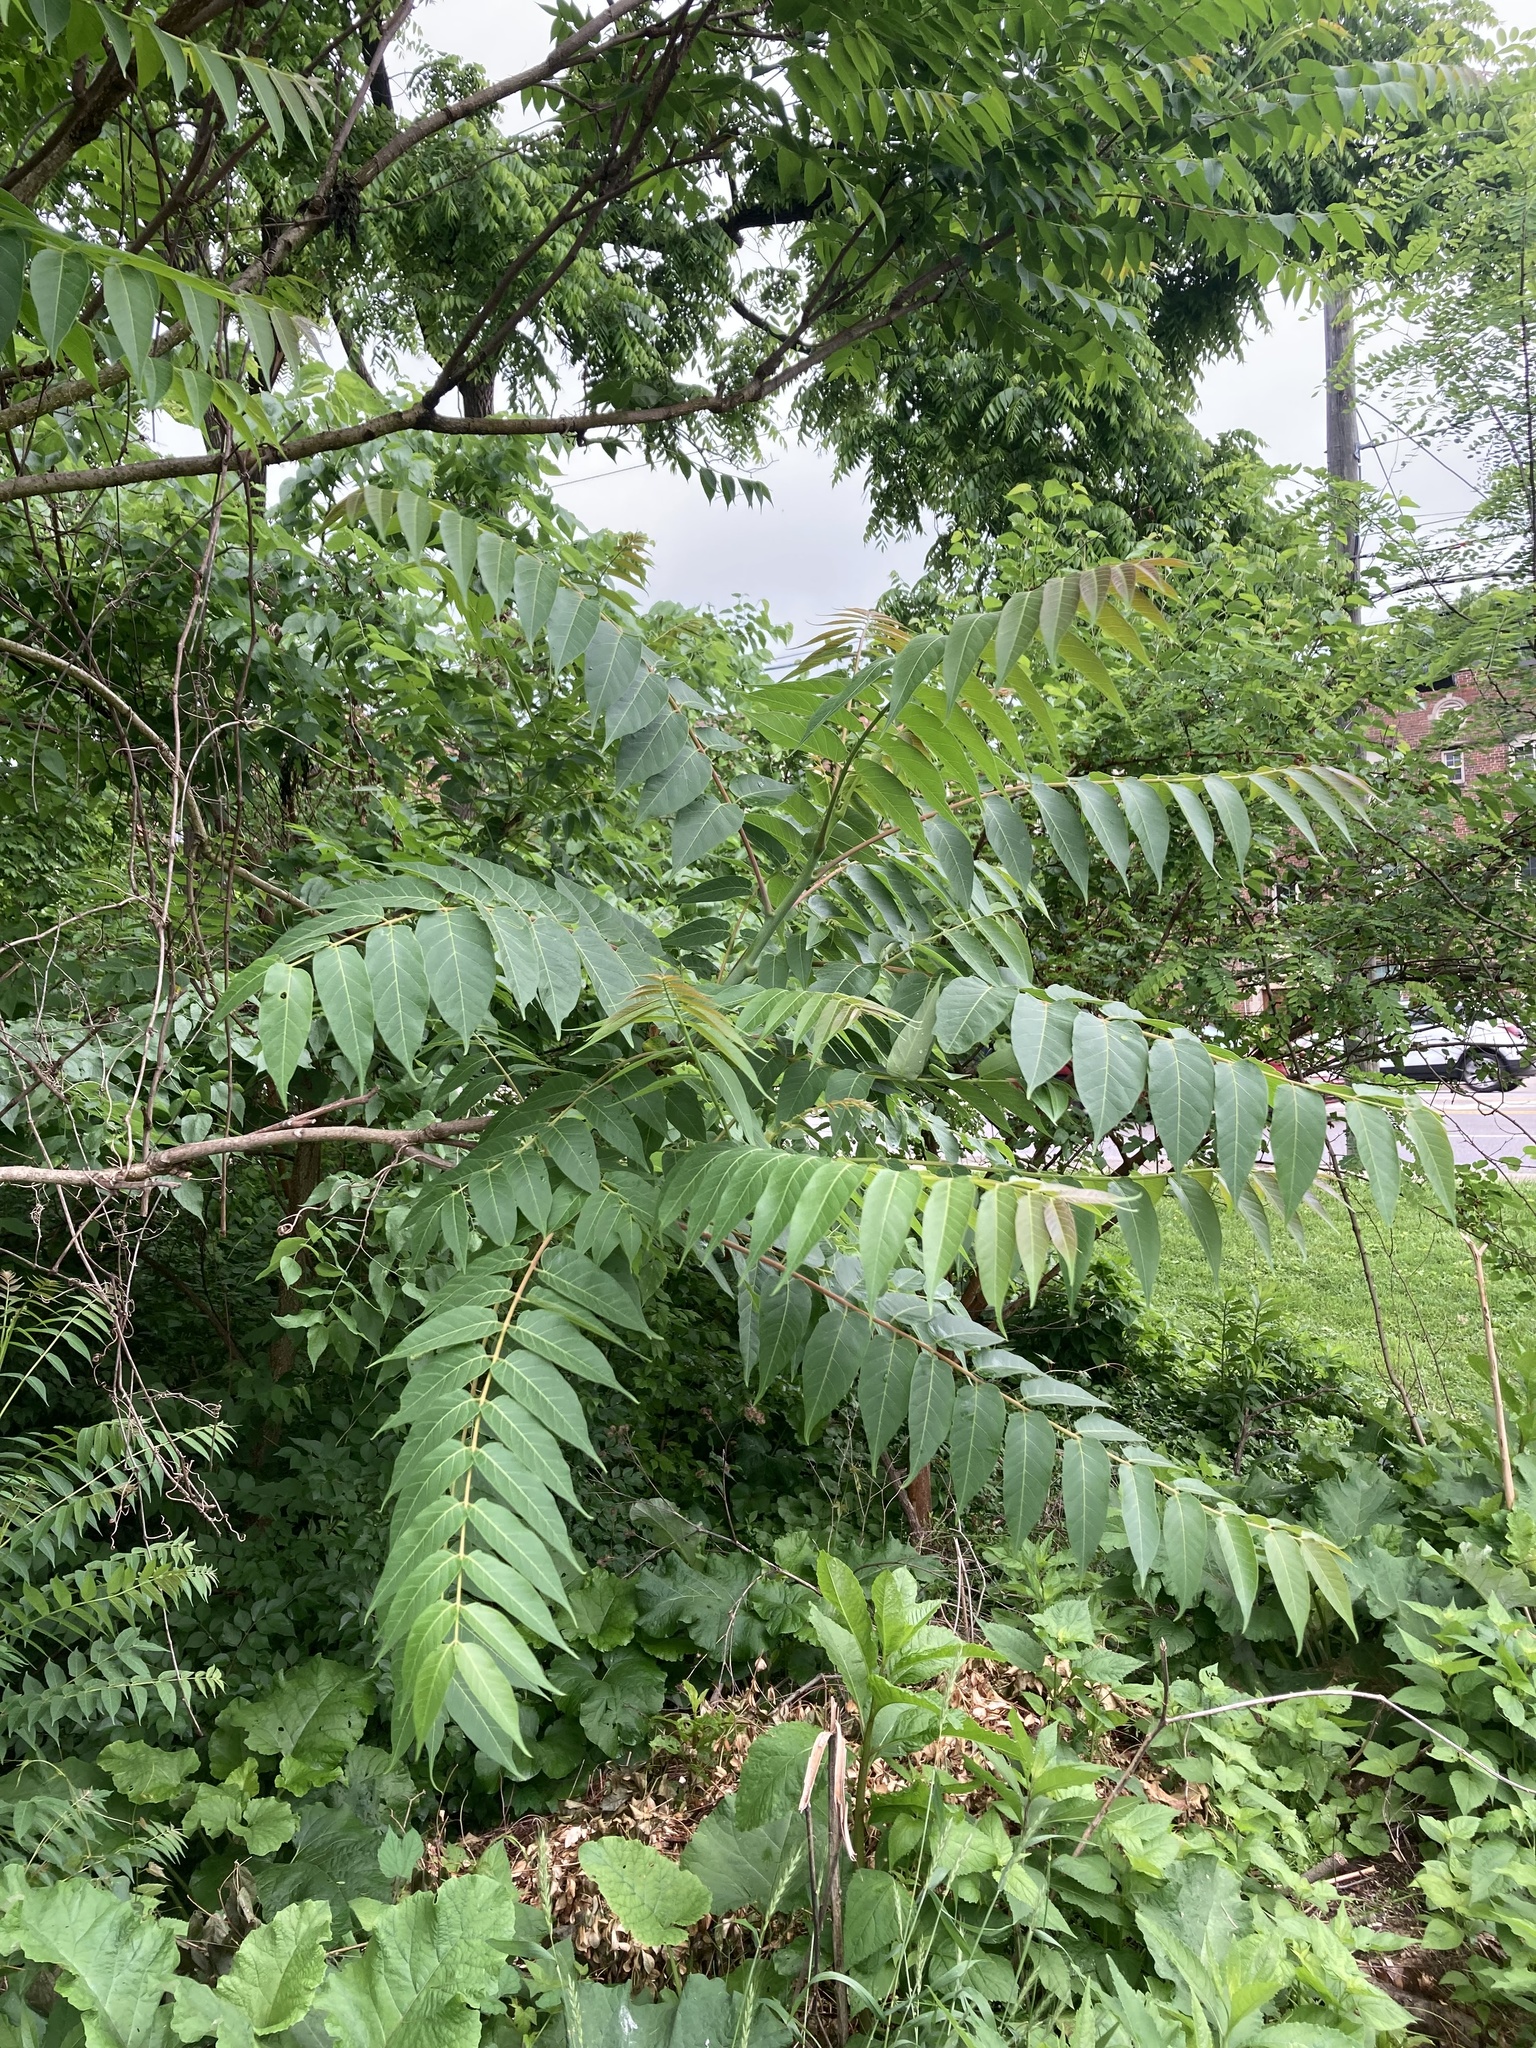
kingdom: Plantae
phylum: Tracheophyta
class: Magnoliopsida
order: Sapindales
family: Simaroubaceae
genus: Ailanthus
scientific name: Ailanthus altissima
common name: Tree-of-heaven
